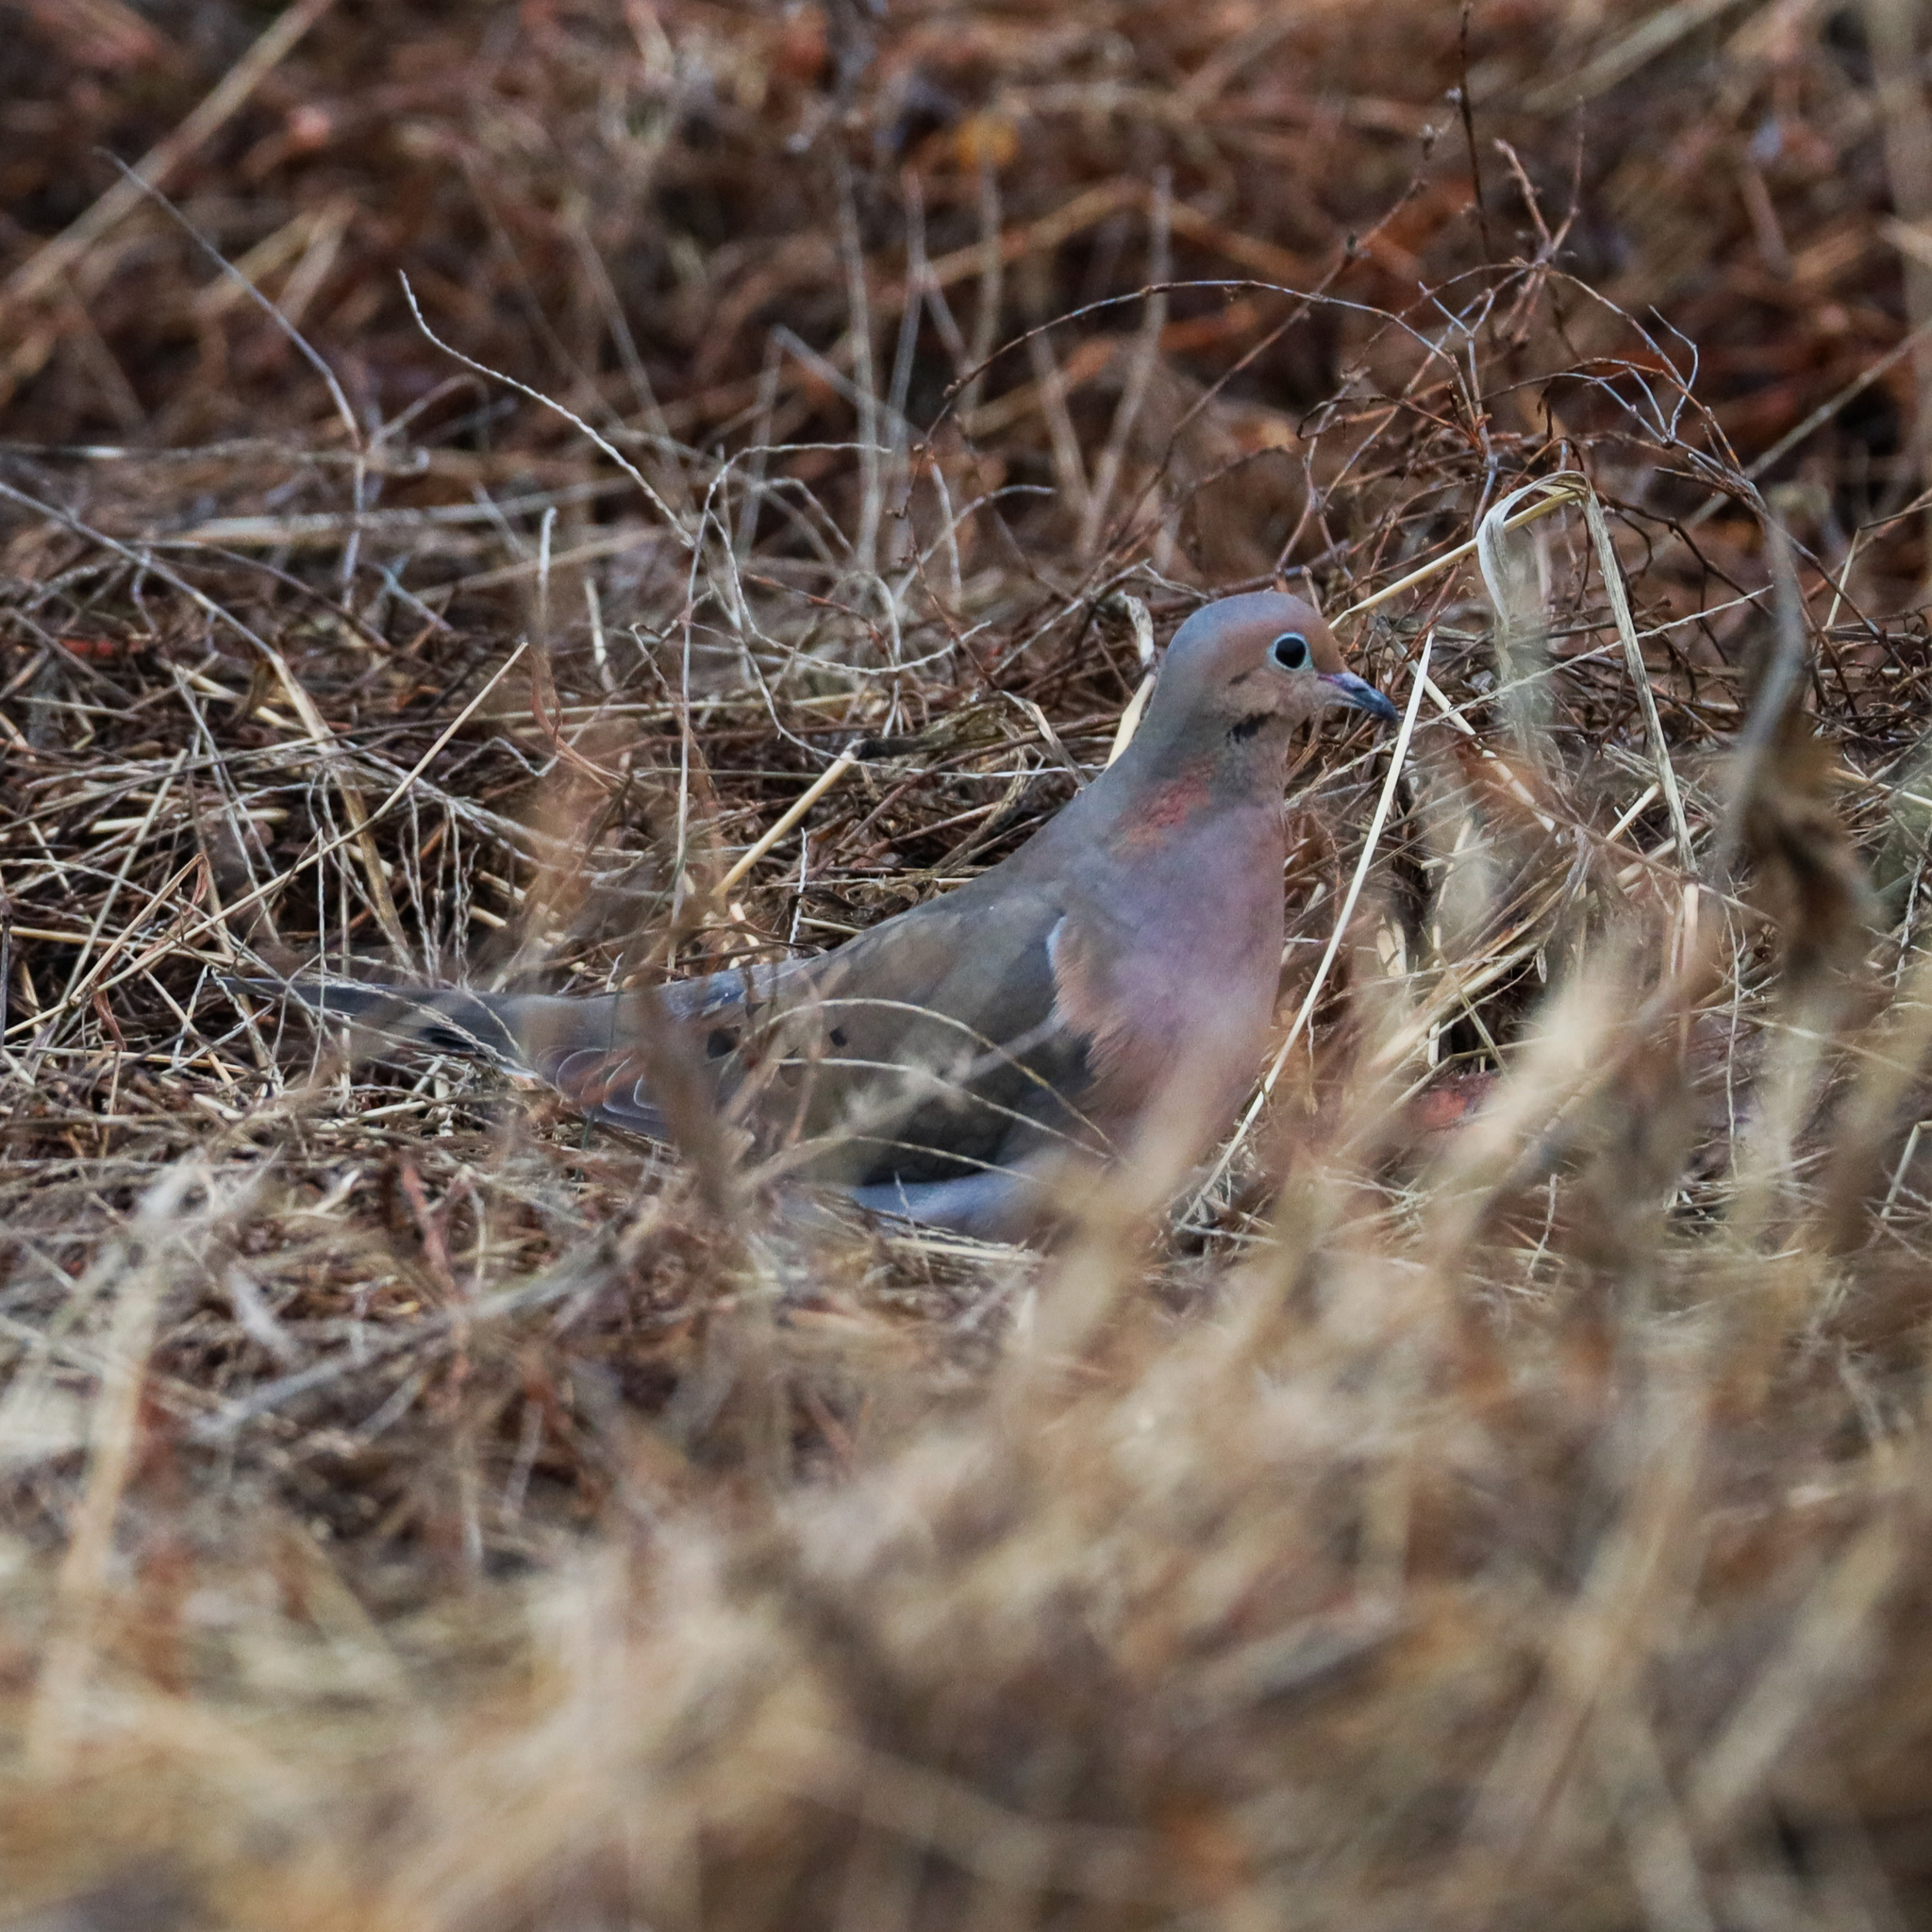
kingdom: Animalia
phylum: Chordata
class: Aves
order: Columbiformes
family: Columbidae
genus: Zenaida
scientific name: Zenaida macroura
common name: Mourning dove
